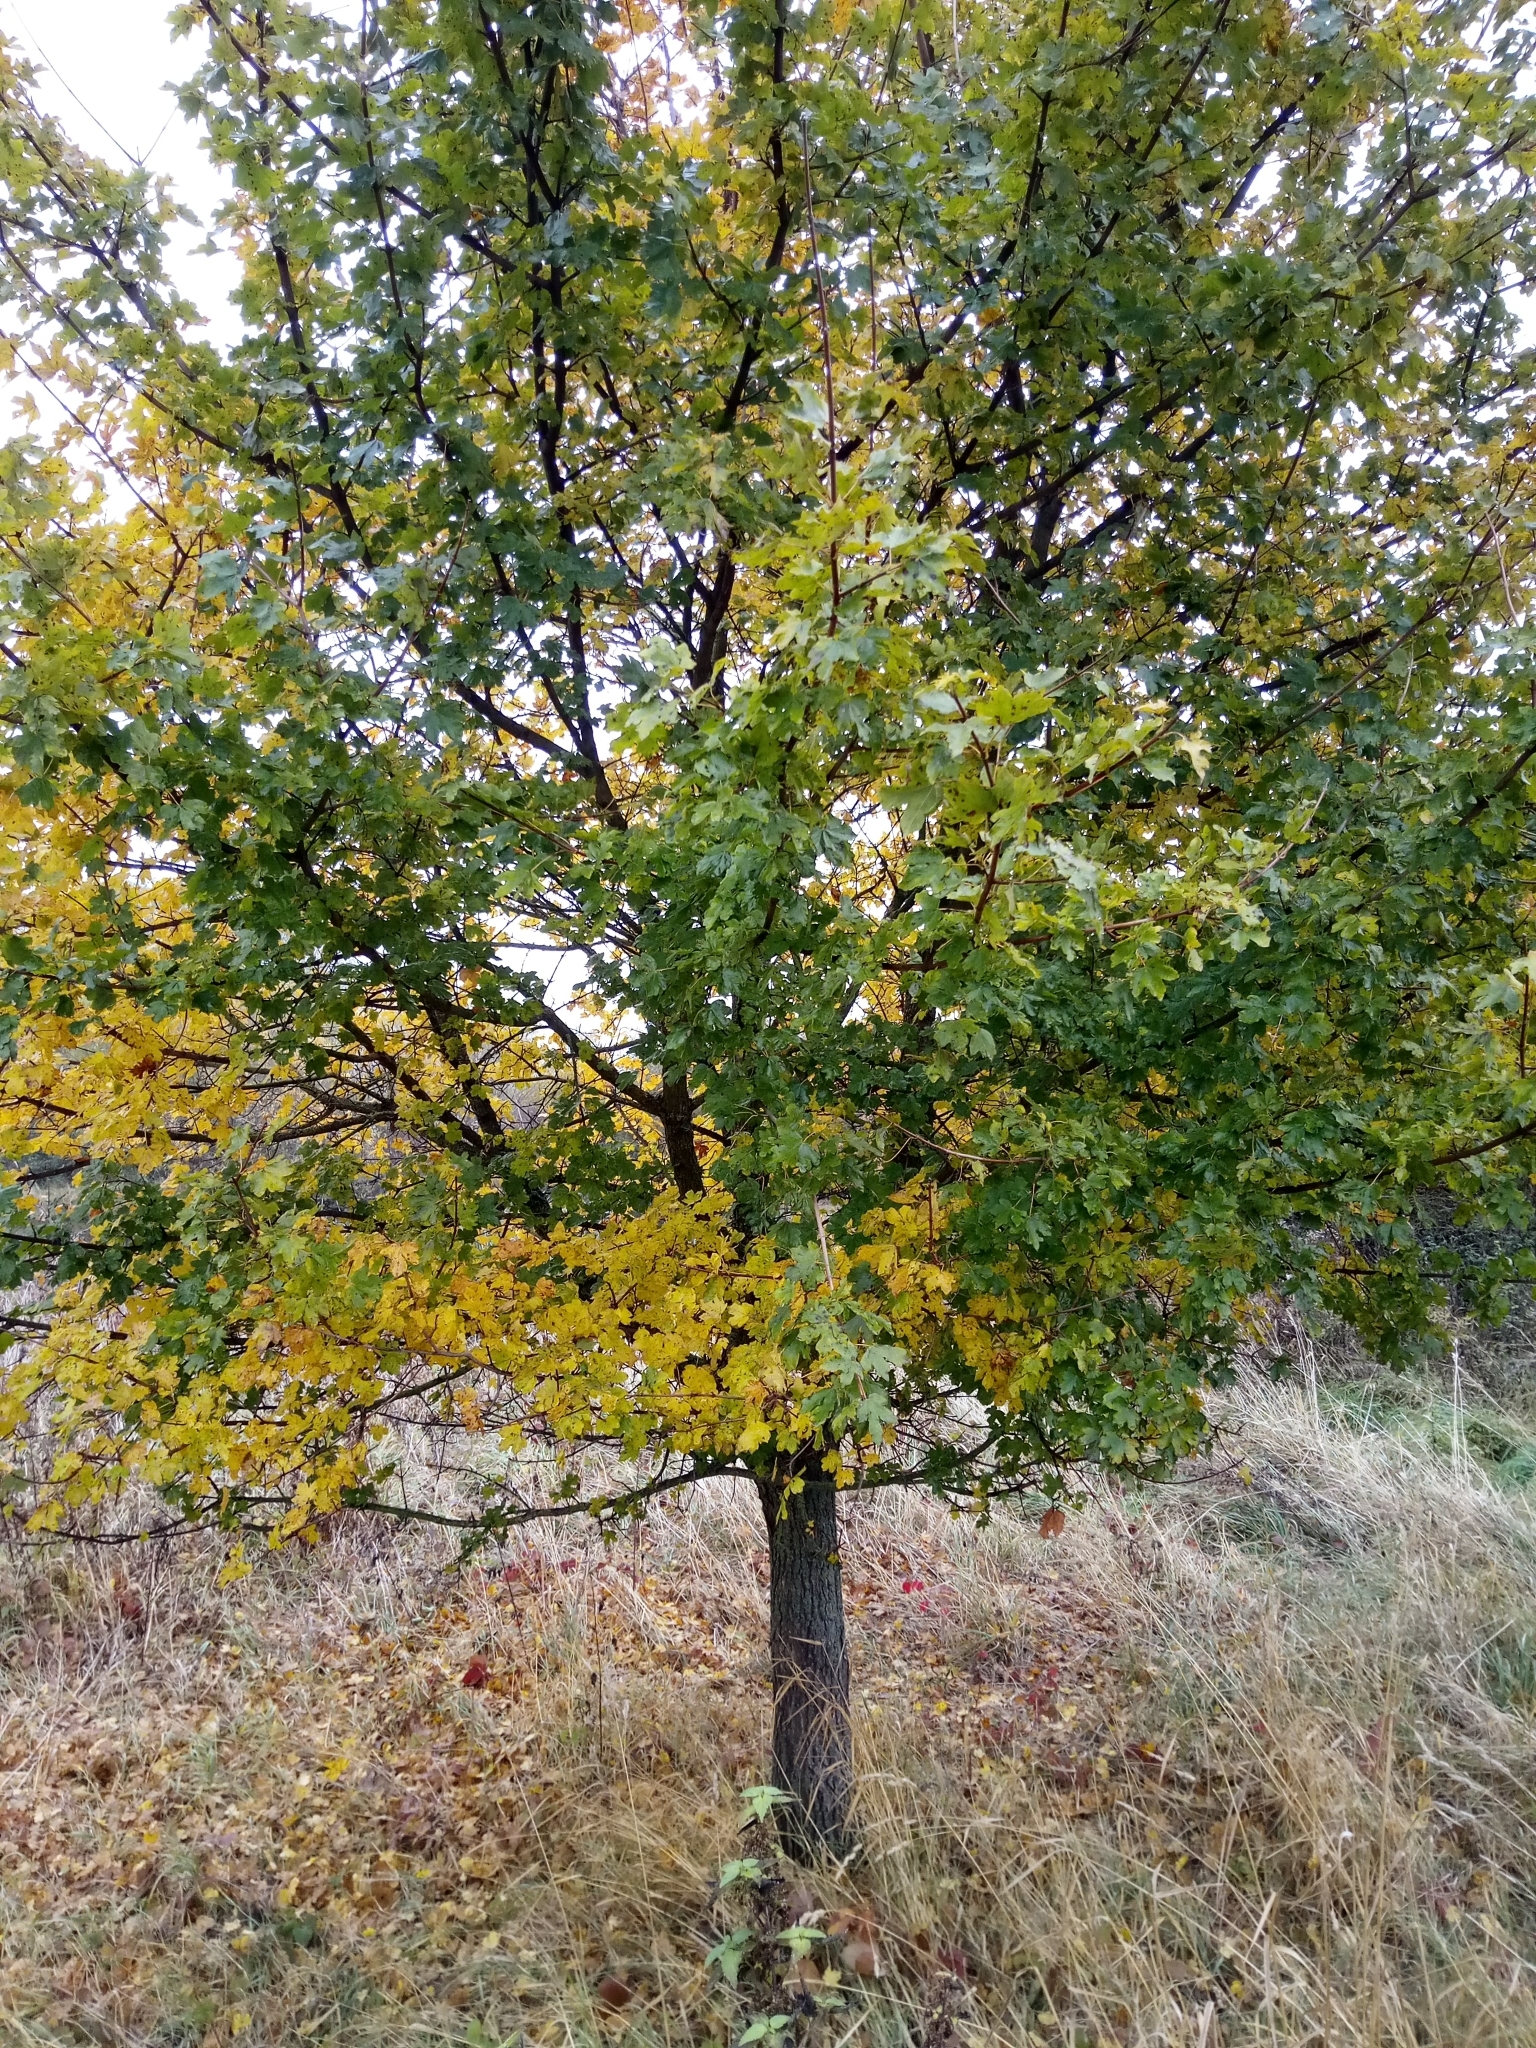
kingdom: Plantae
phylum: Tracheophyta
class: Magnoliopsida
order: Sapindales
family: Sapindaceae
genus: Acer
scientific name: Acer campestre
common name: Field maple
